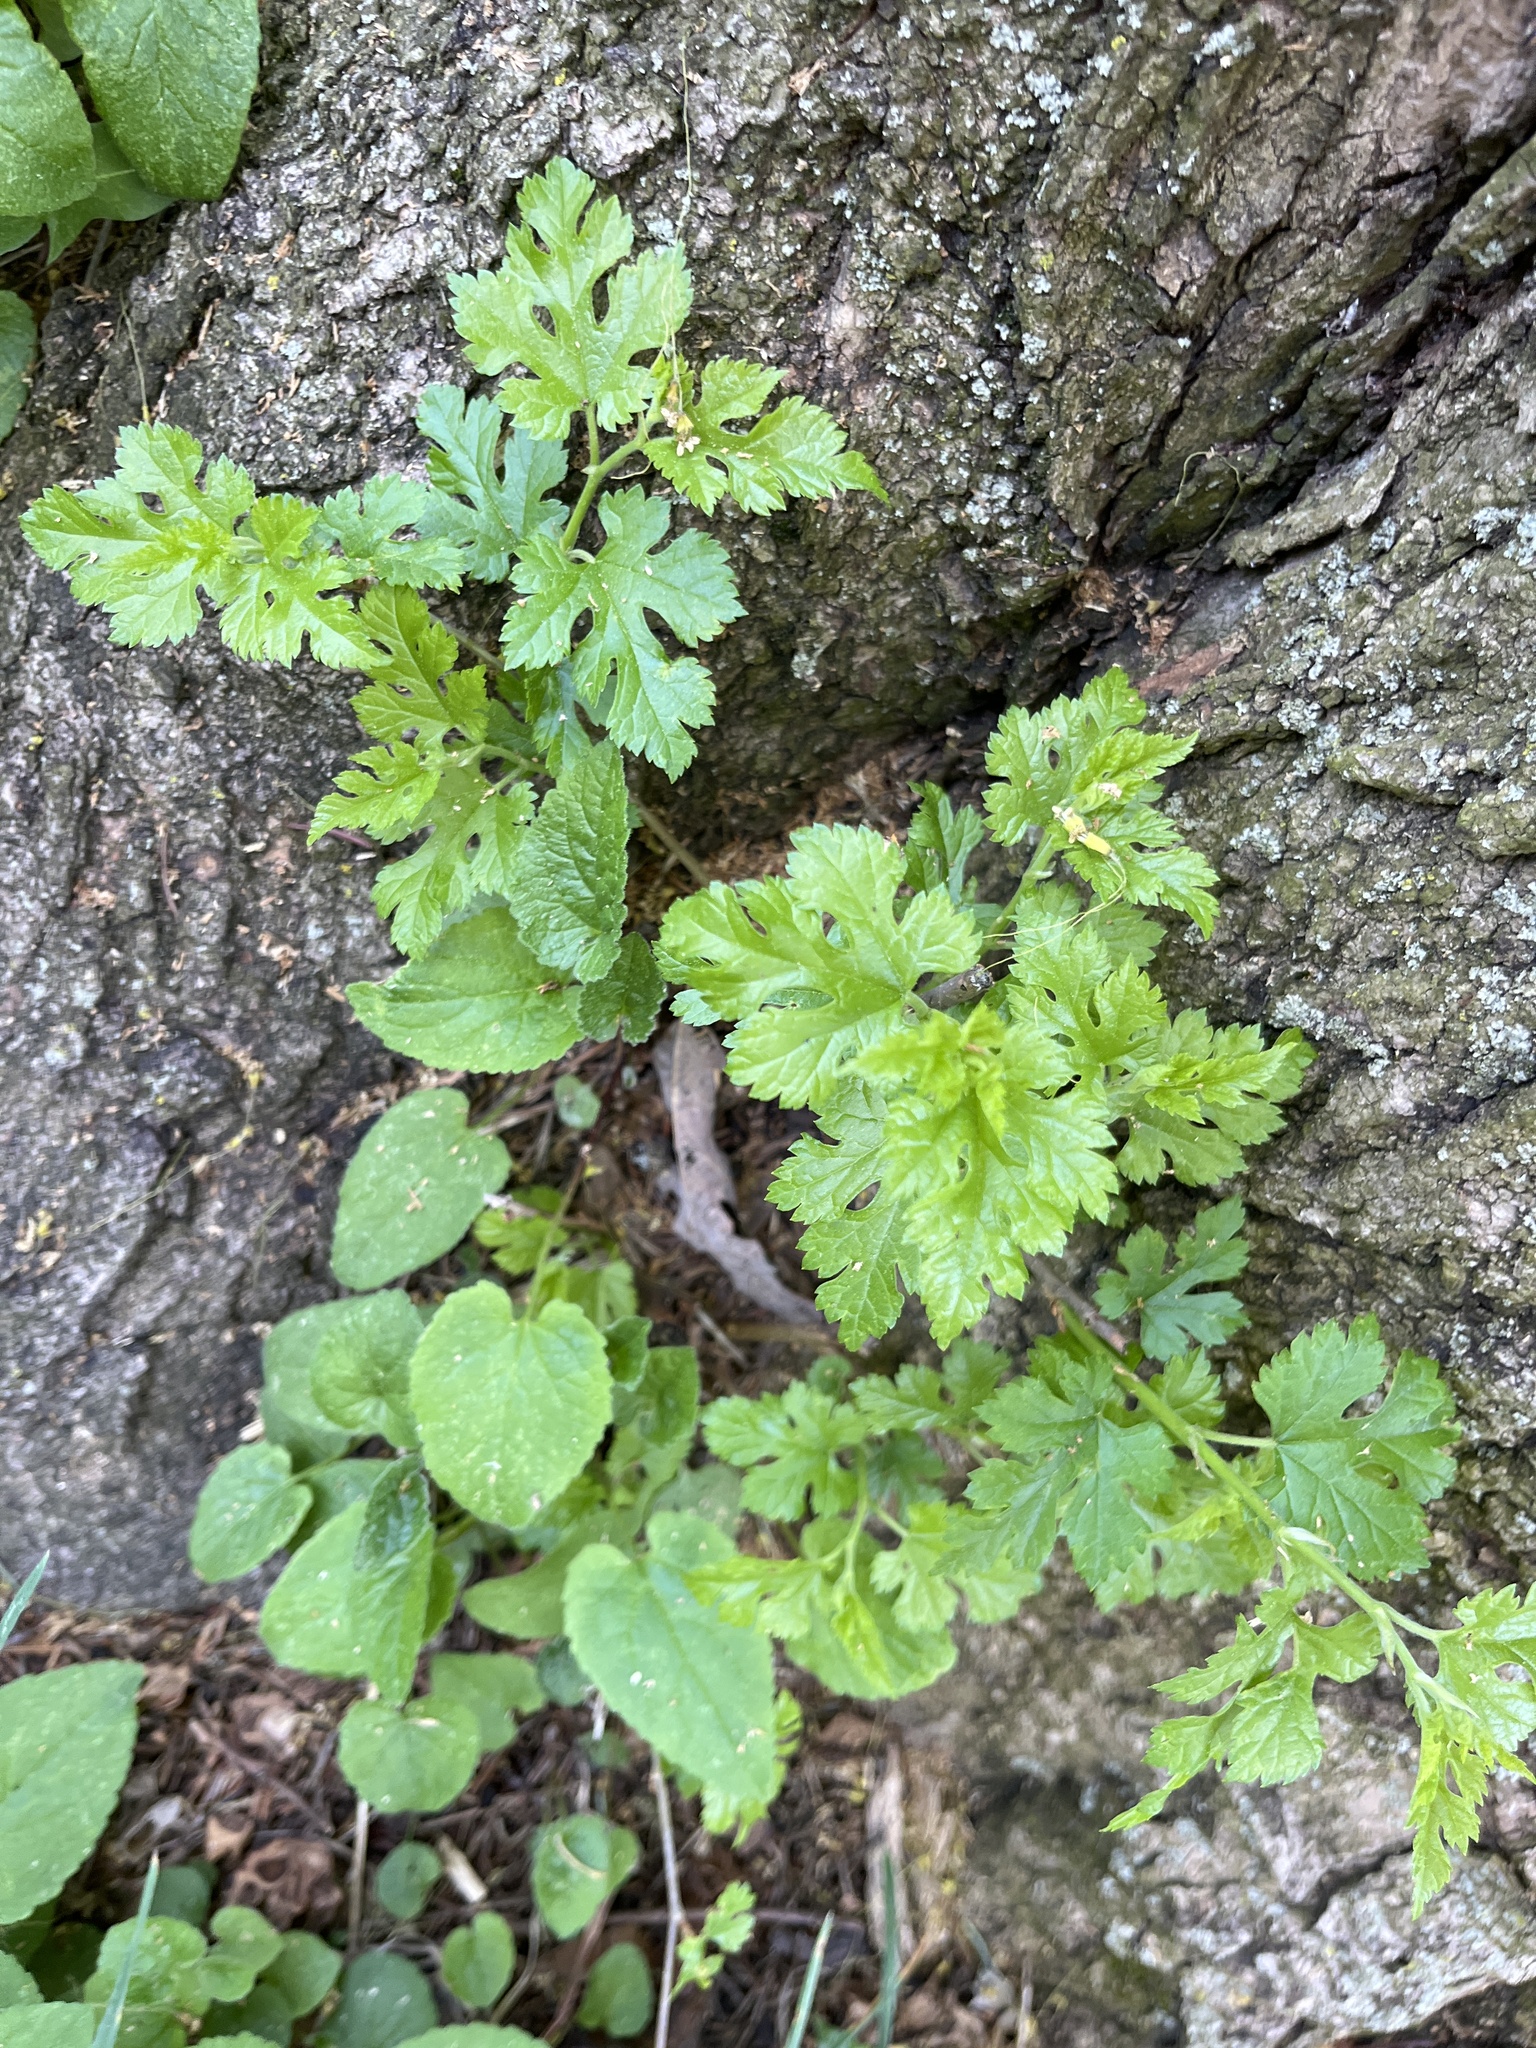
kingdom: Plantae
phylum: Tracheophyta
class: Magnoliopsida
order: Rosales
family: Moraceae
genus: Morus
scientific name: Morus alba
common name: White mulberry
